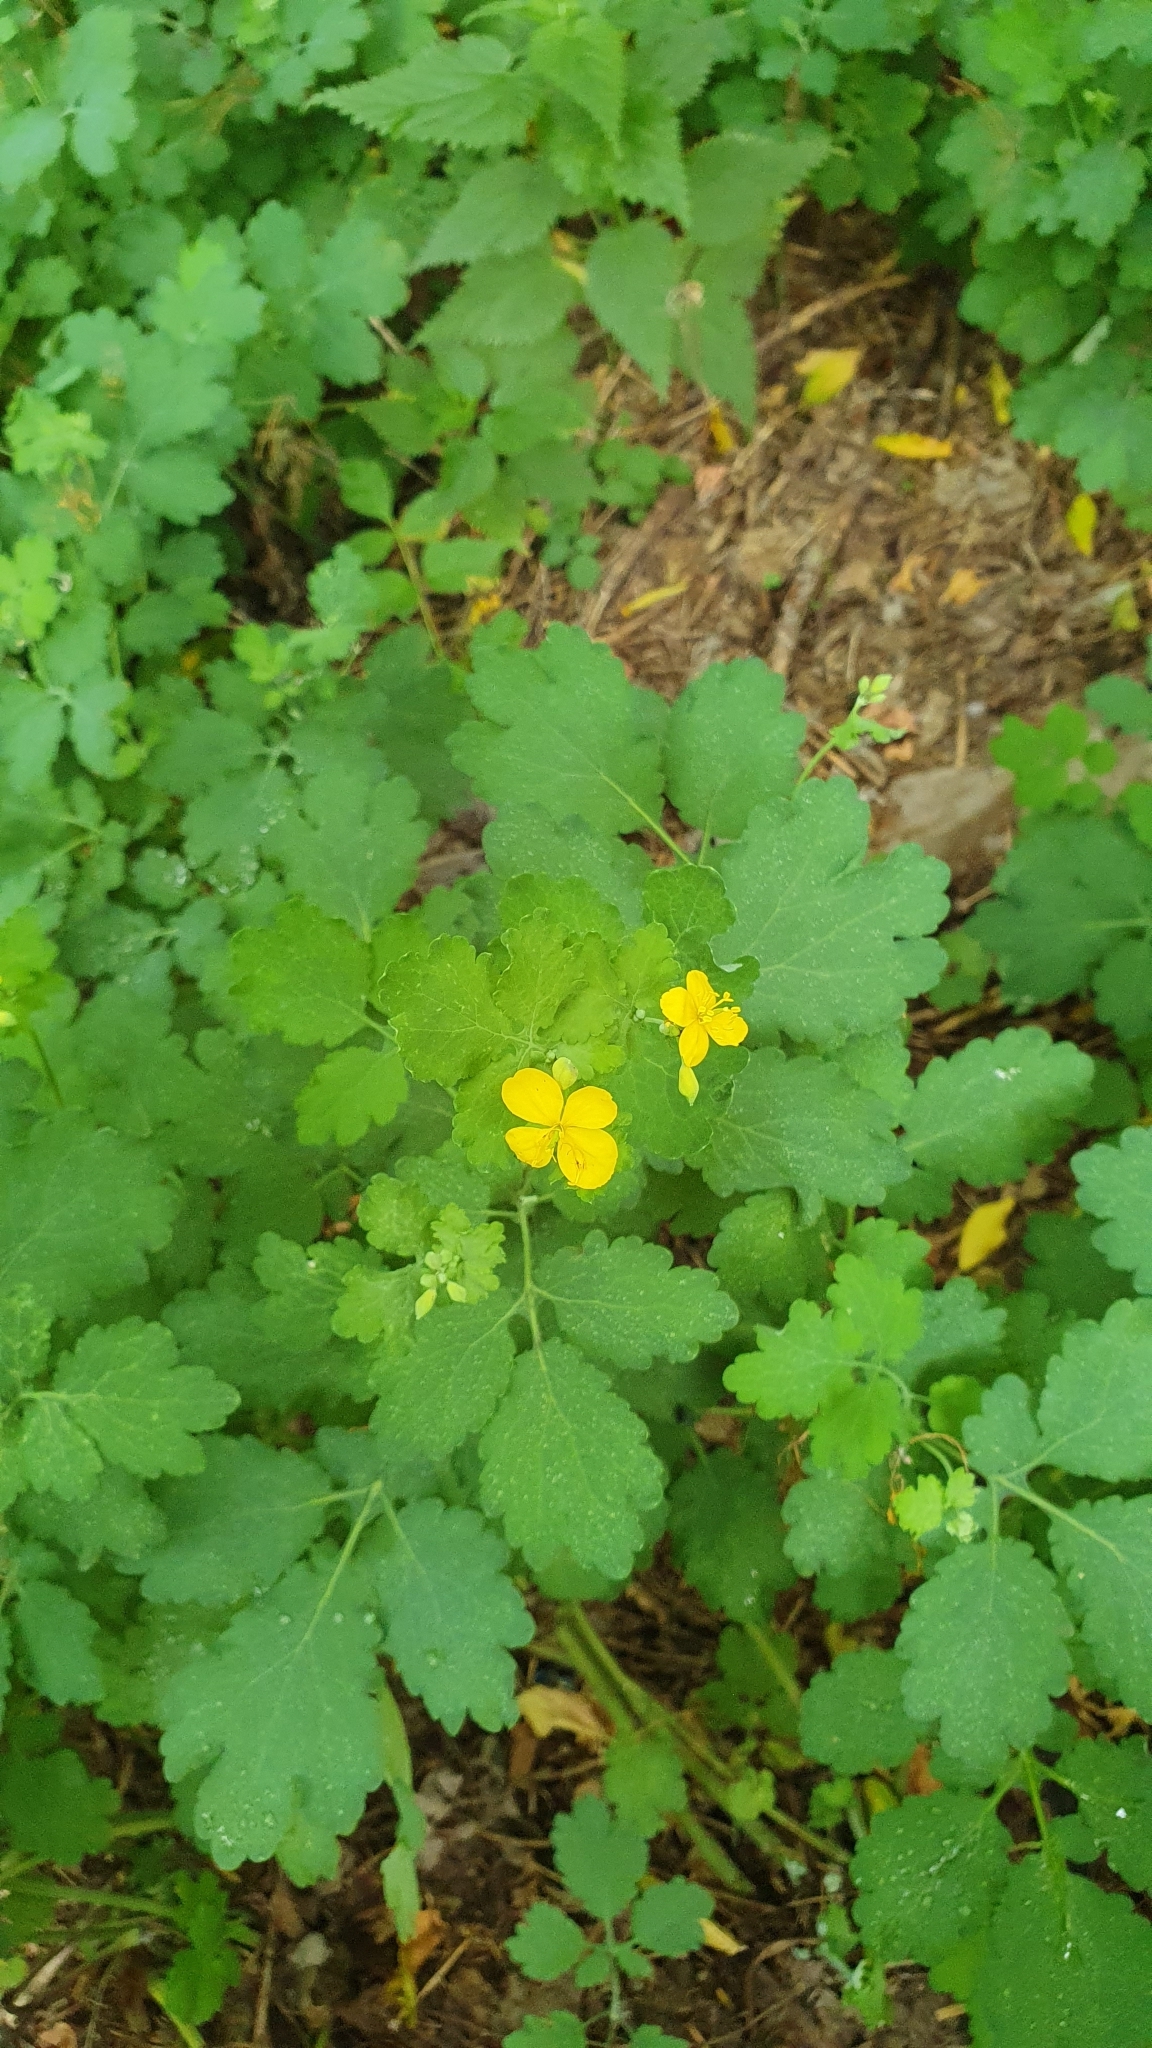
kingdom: Plantae
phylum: Tracheophyta
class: Magnoliopsida
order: Ranunculales
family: Papaveraceae
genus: Chelidonium
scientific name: Chelidonium majus
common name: Greater celandine
